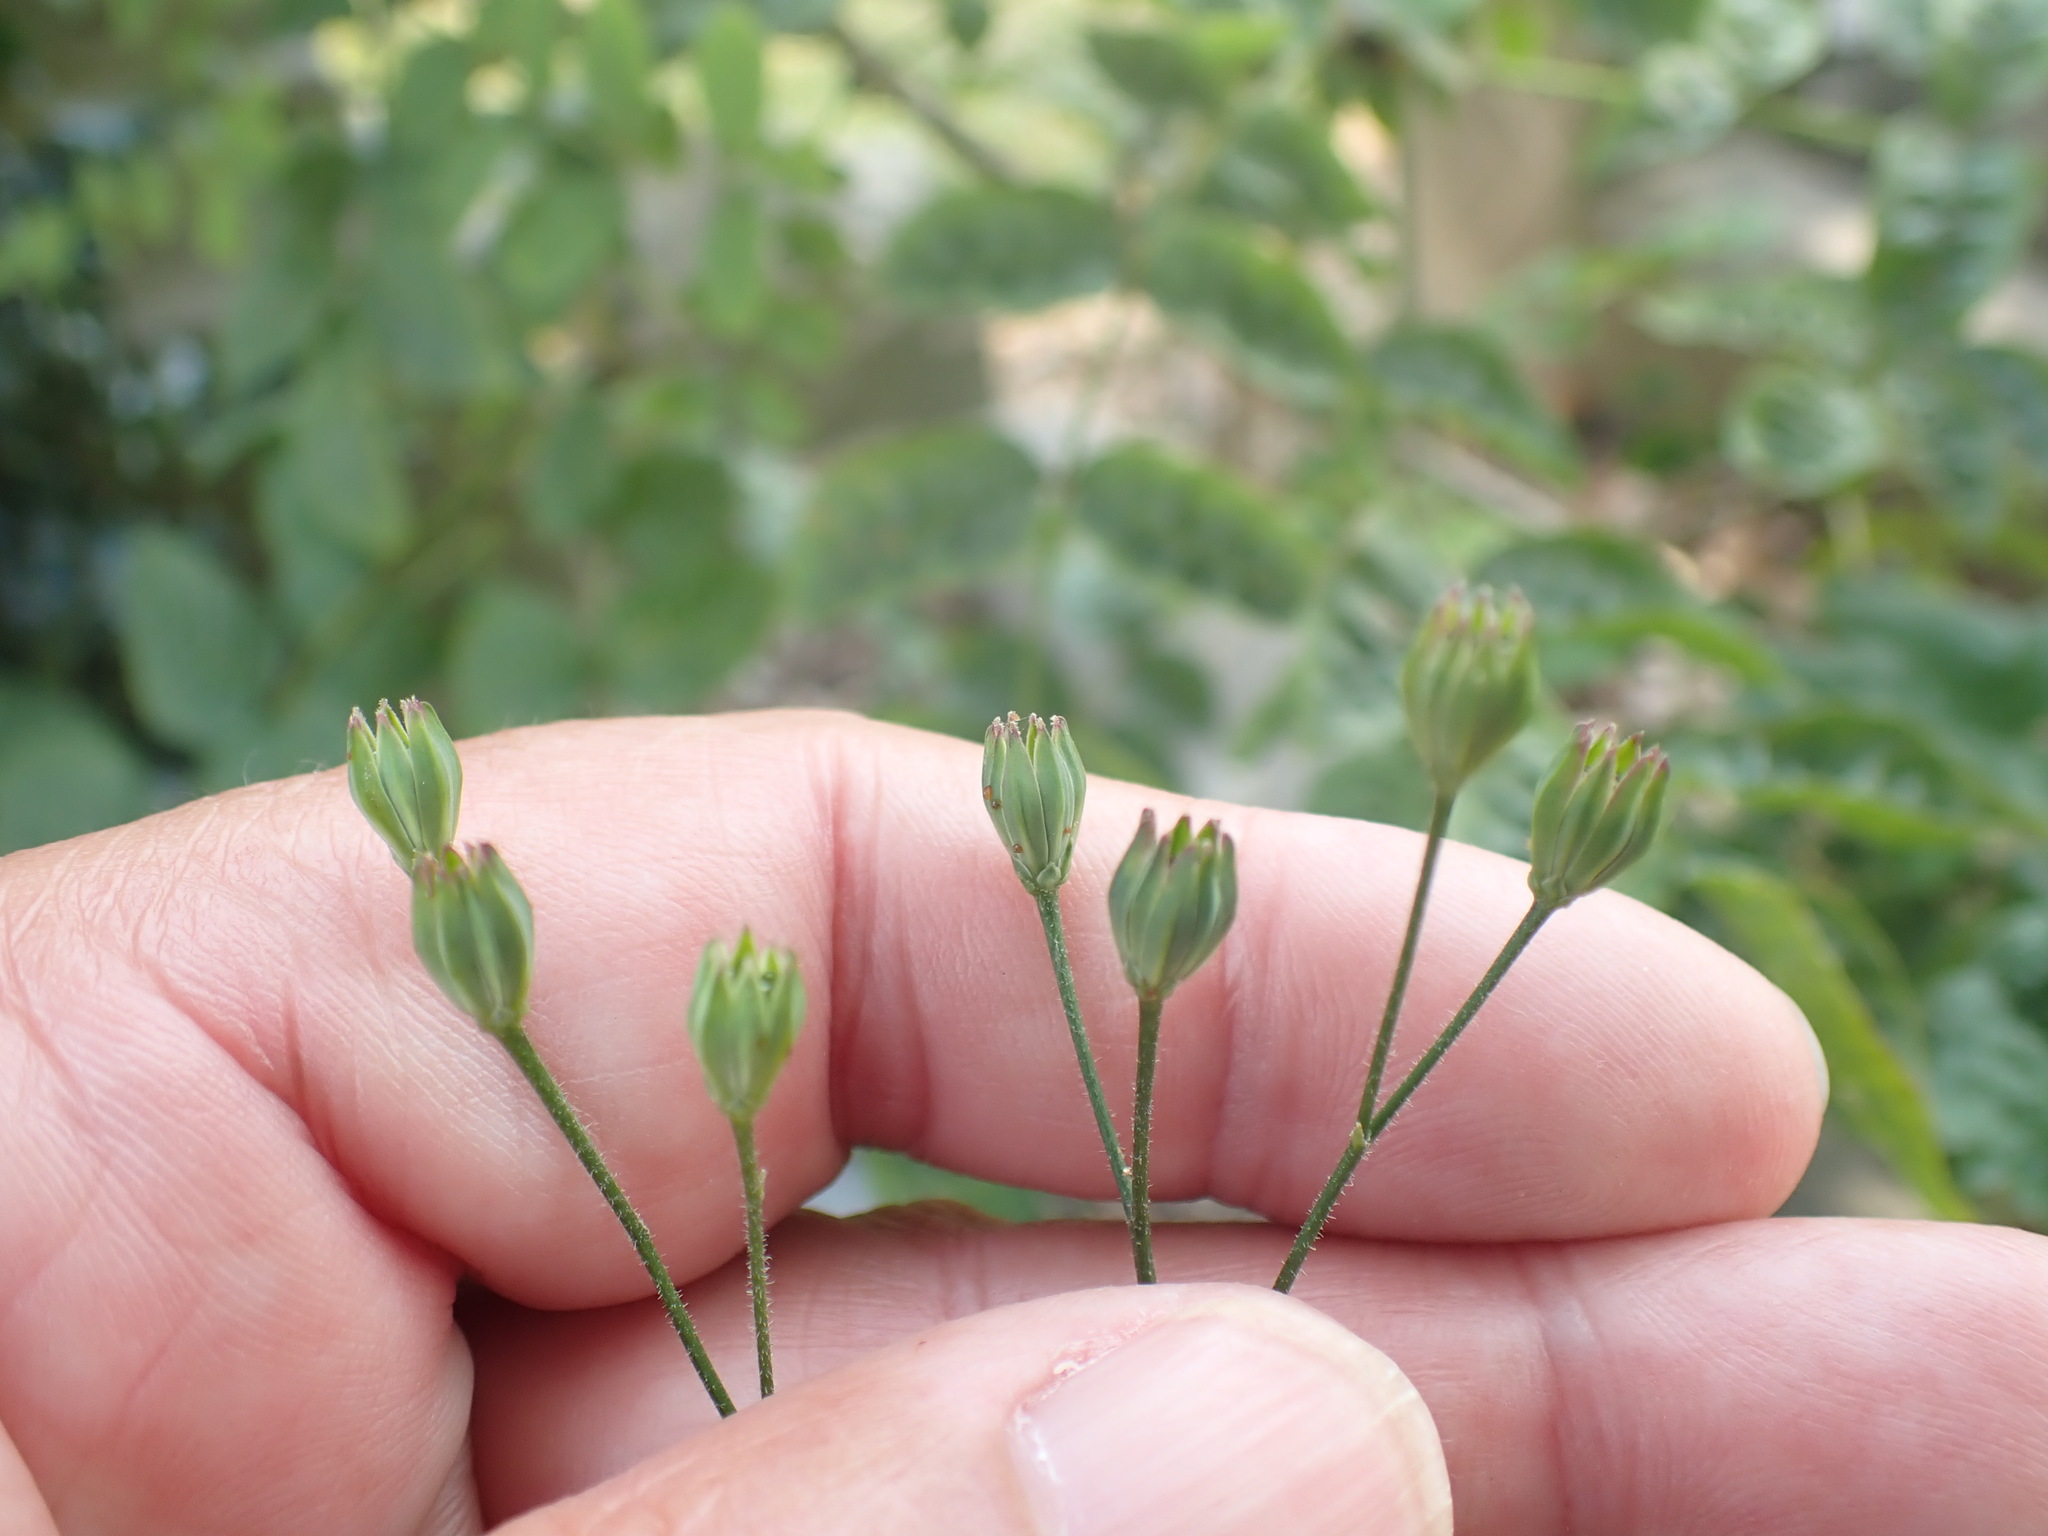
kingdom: Plantae
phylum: Tracheophyta
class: Magnoliopsida
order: Asterales
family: Asteraceae
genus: Lapsana
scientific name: Lapsana communis
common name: Nipplewort
